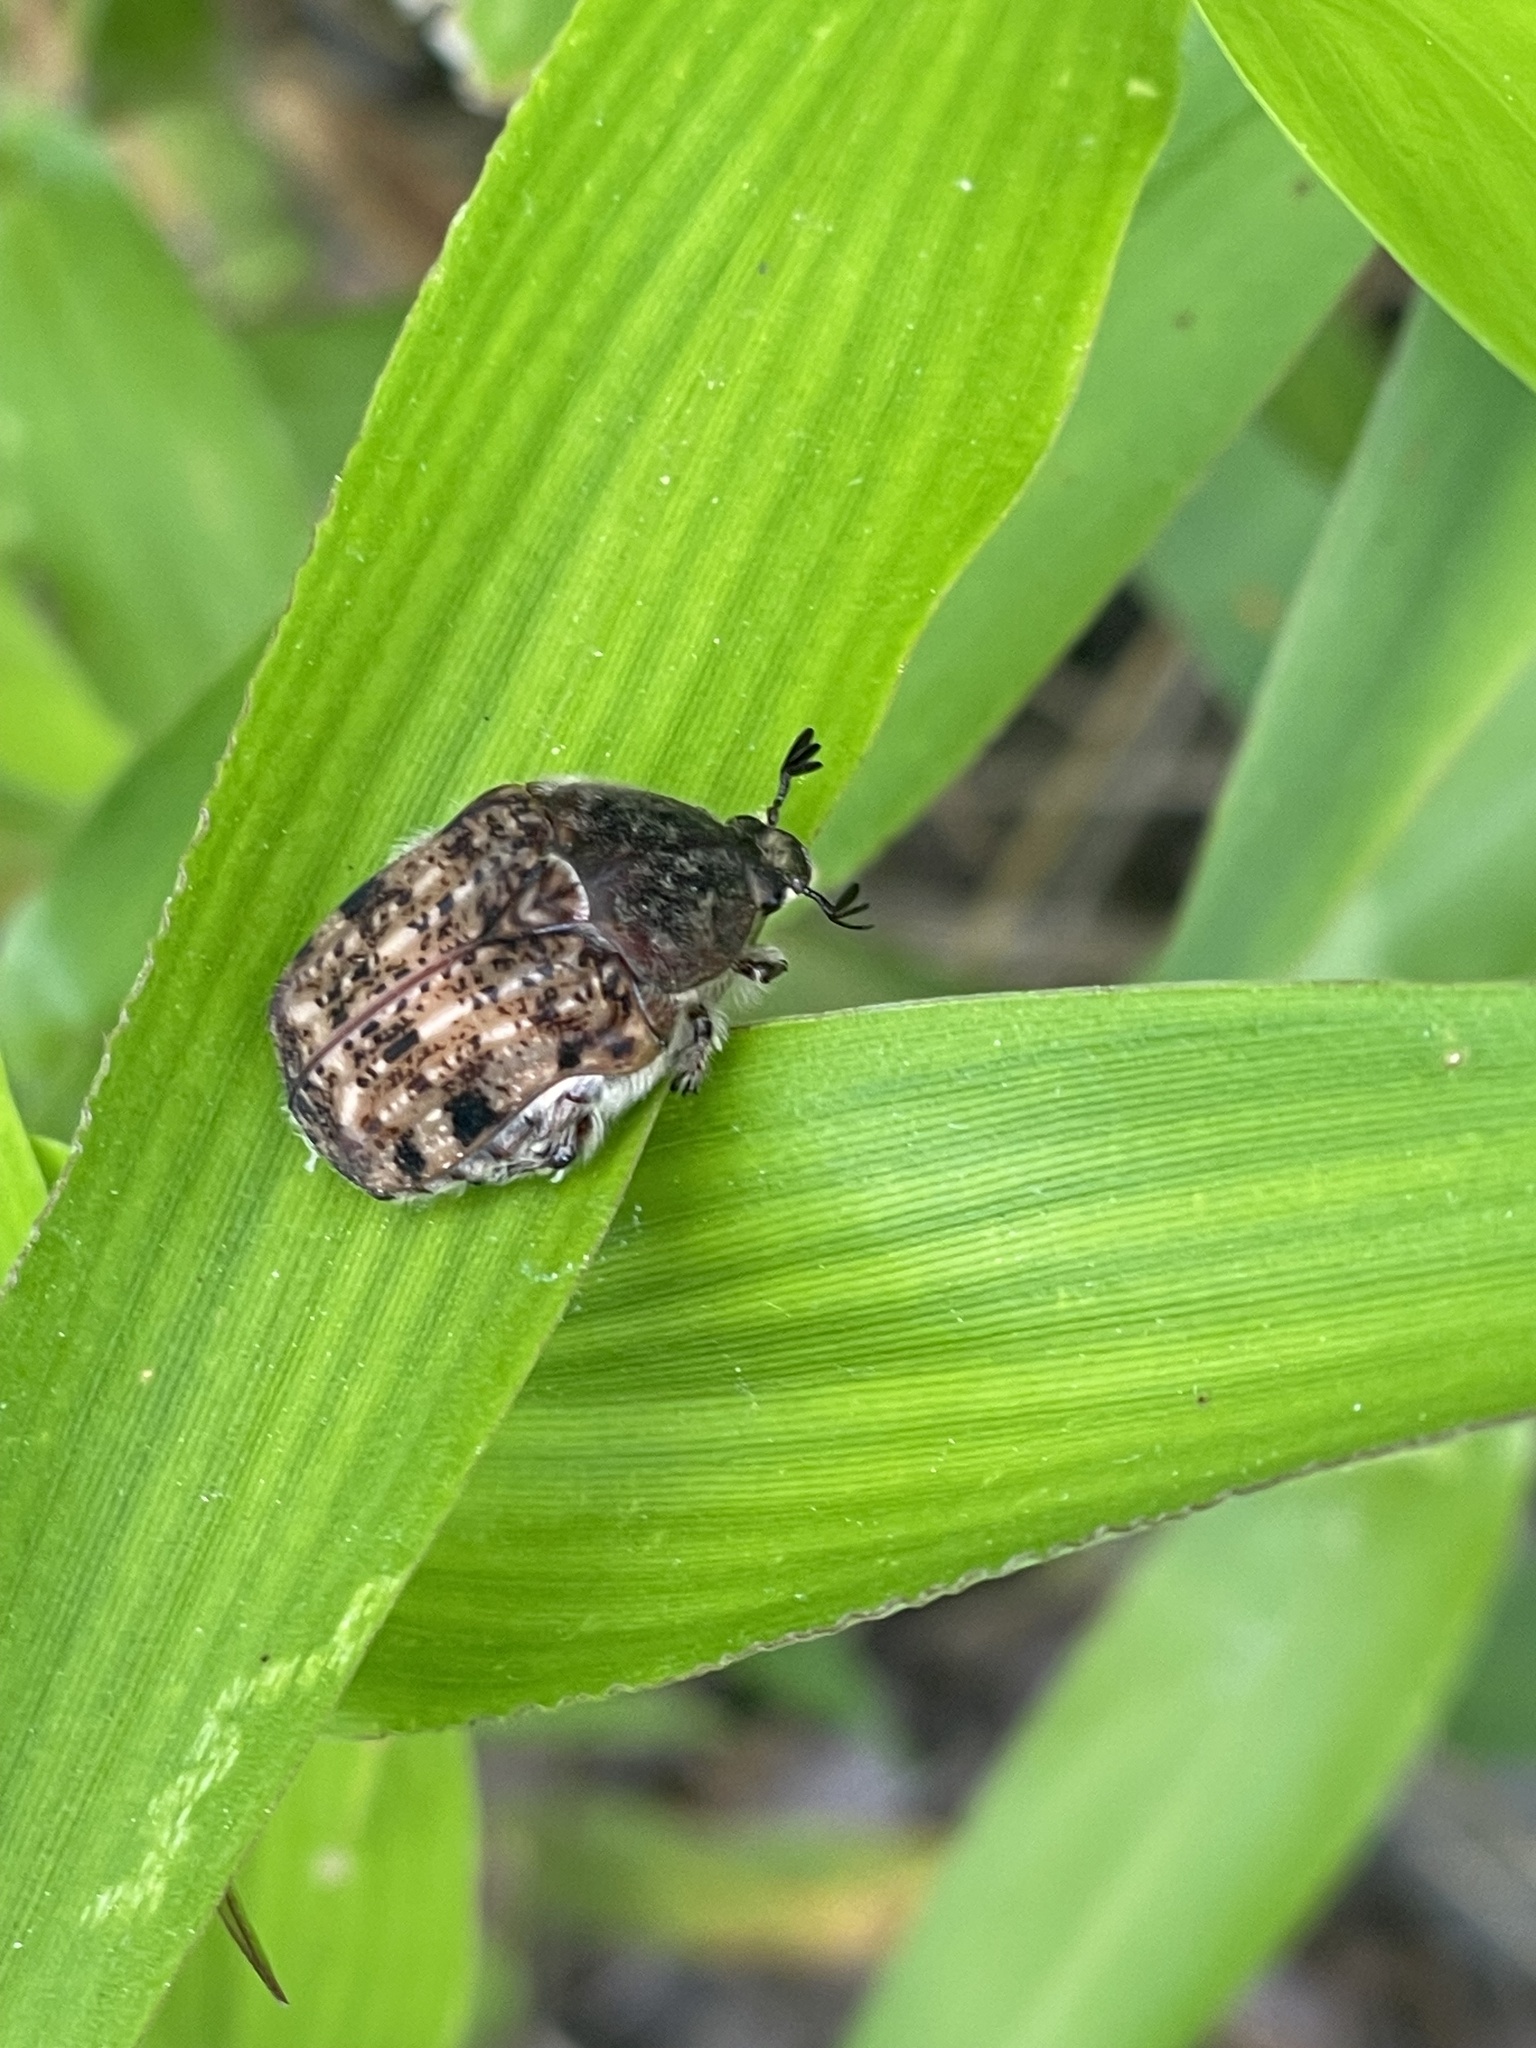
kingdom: Animalia
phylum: Arthropoda
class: Insecta
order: Coleoptera
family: Scarabaeidae
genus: Euphoria
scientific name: Euphoria inda
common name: Bumble flower beetle
